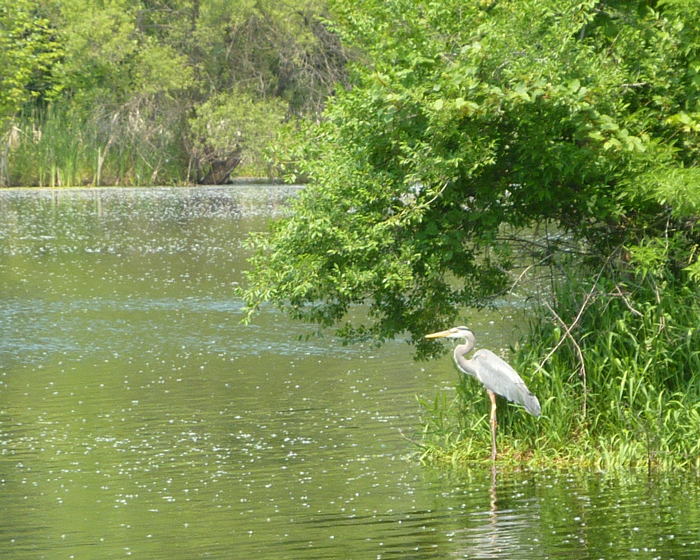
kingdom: Animalia
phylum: Chordata
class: Aves
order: Pelecaniformes
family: Ardeidae
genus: Ardea
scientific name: Ardea herodias
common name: Great blue heron
